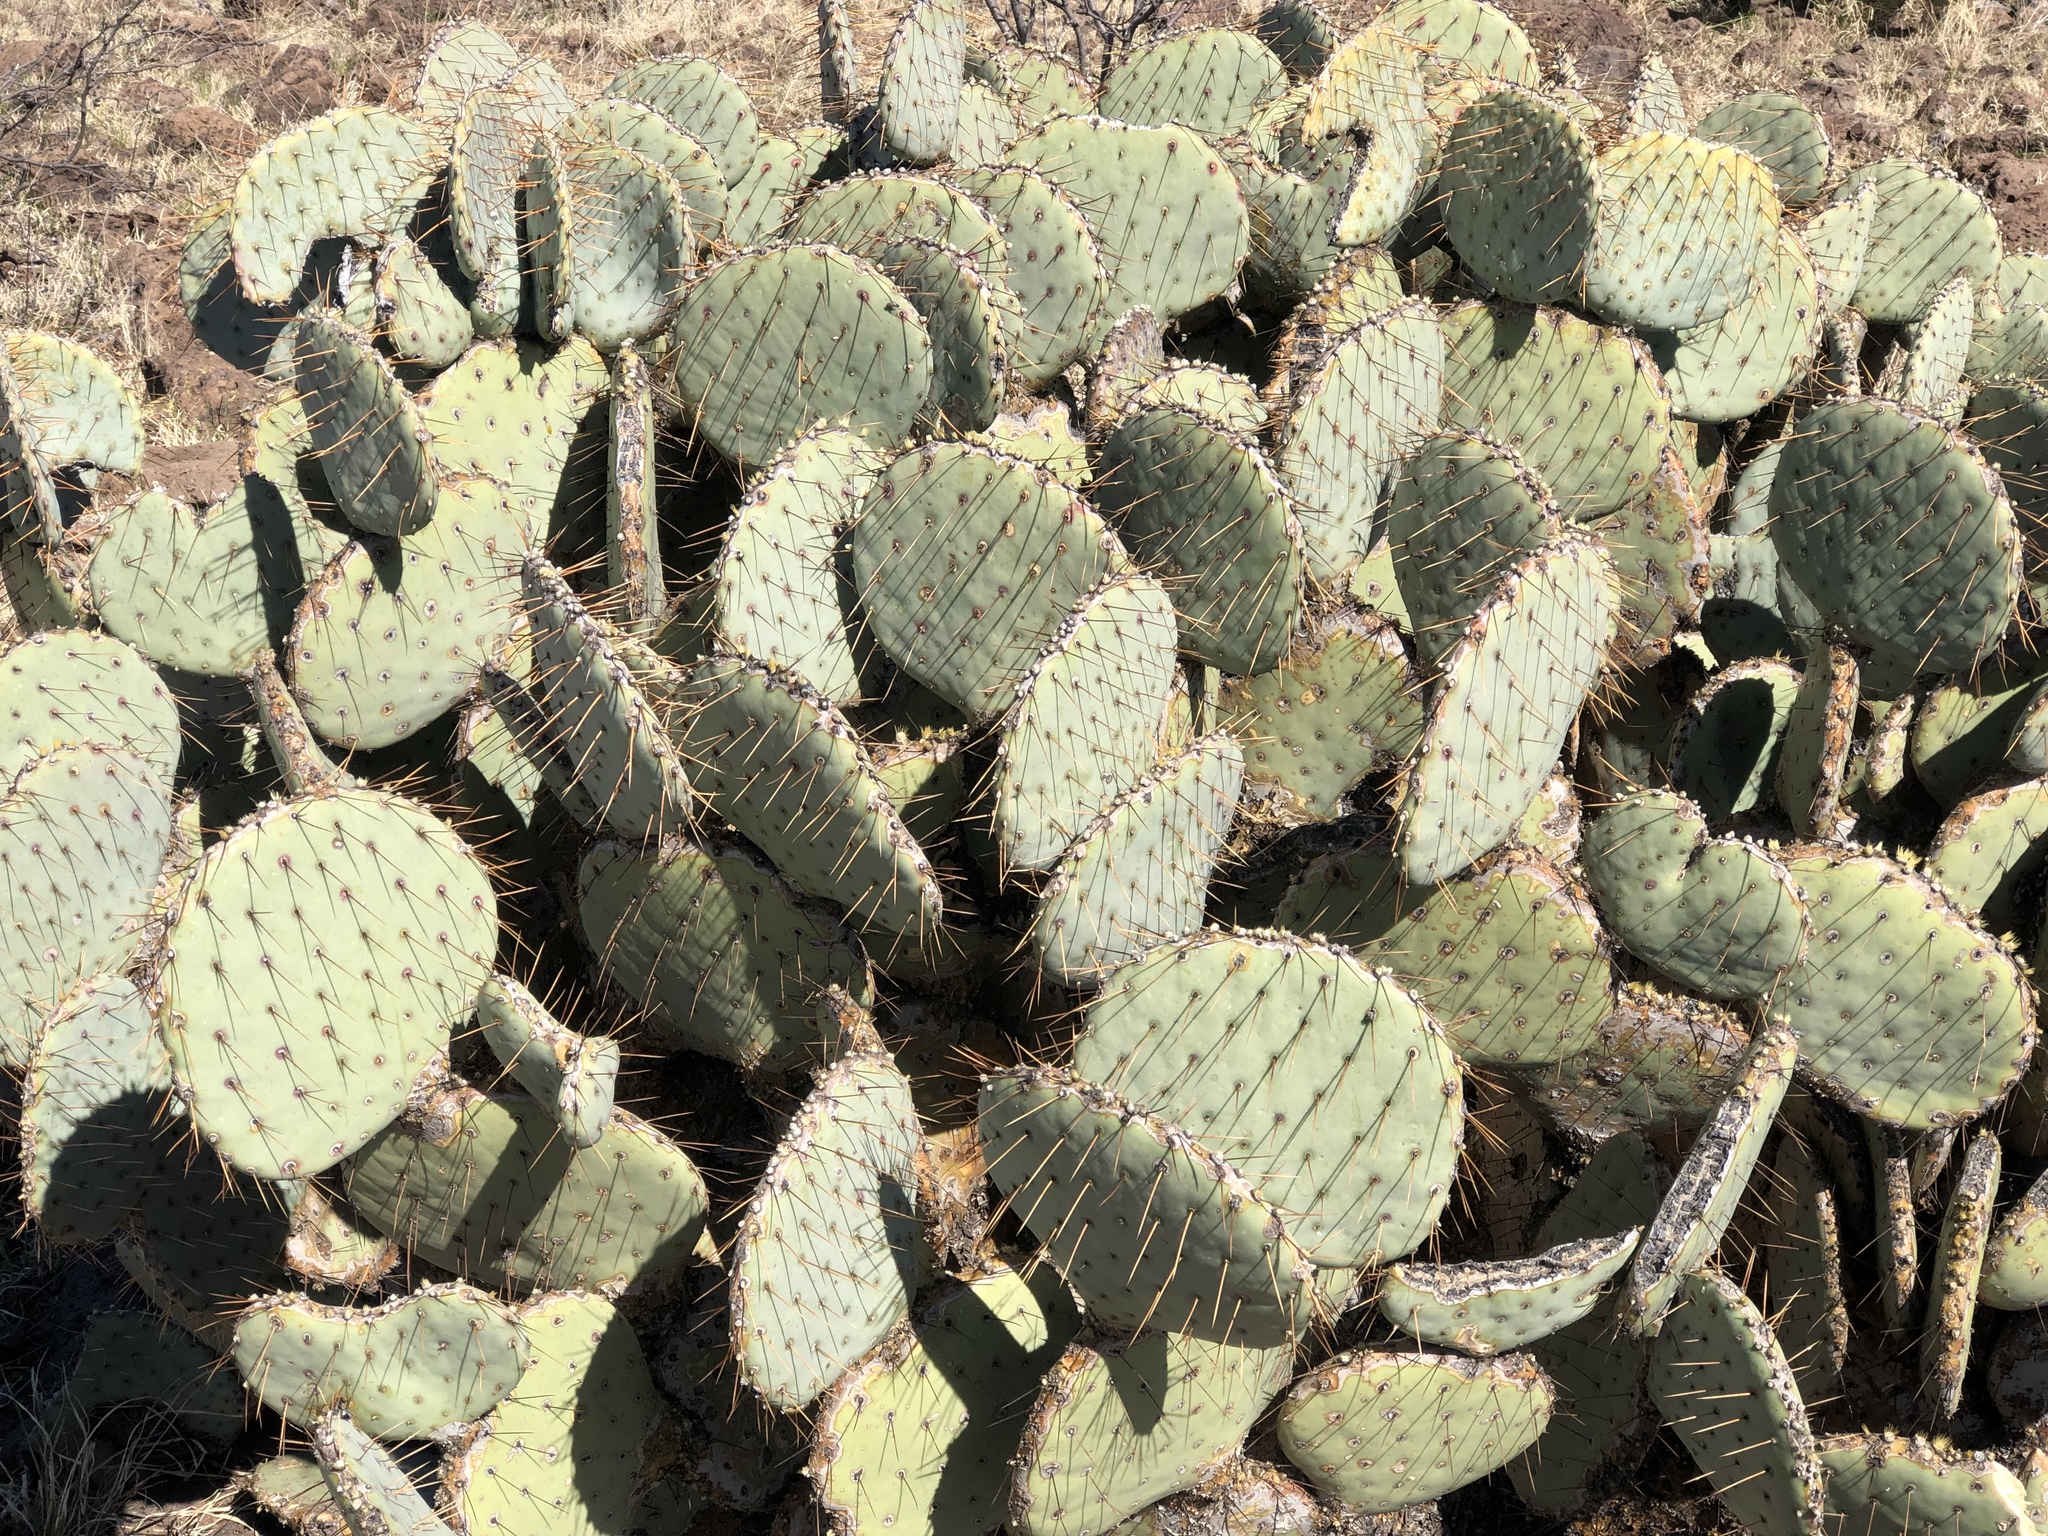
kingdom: Plantae
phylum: Tracheophyta
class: Magnoliopsida
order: Caryophyllales
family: Cactaceae
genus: Opuntia
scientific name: Opuntia gosseliniana
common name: Violet prickly-pear
